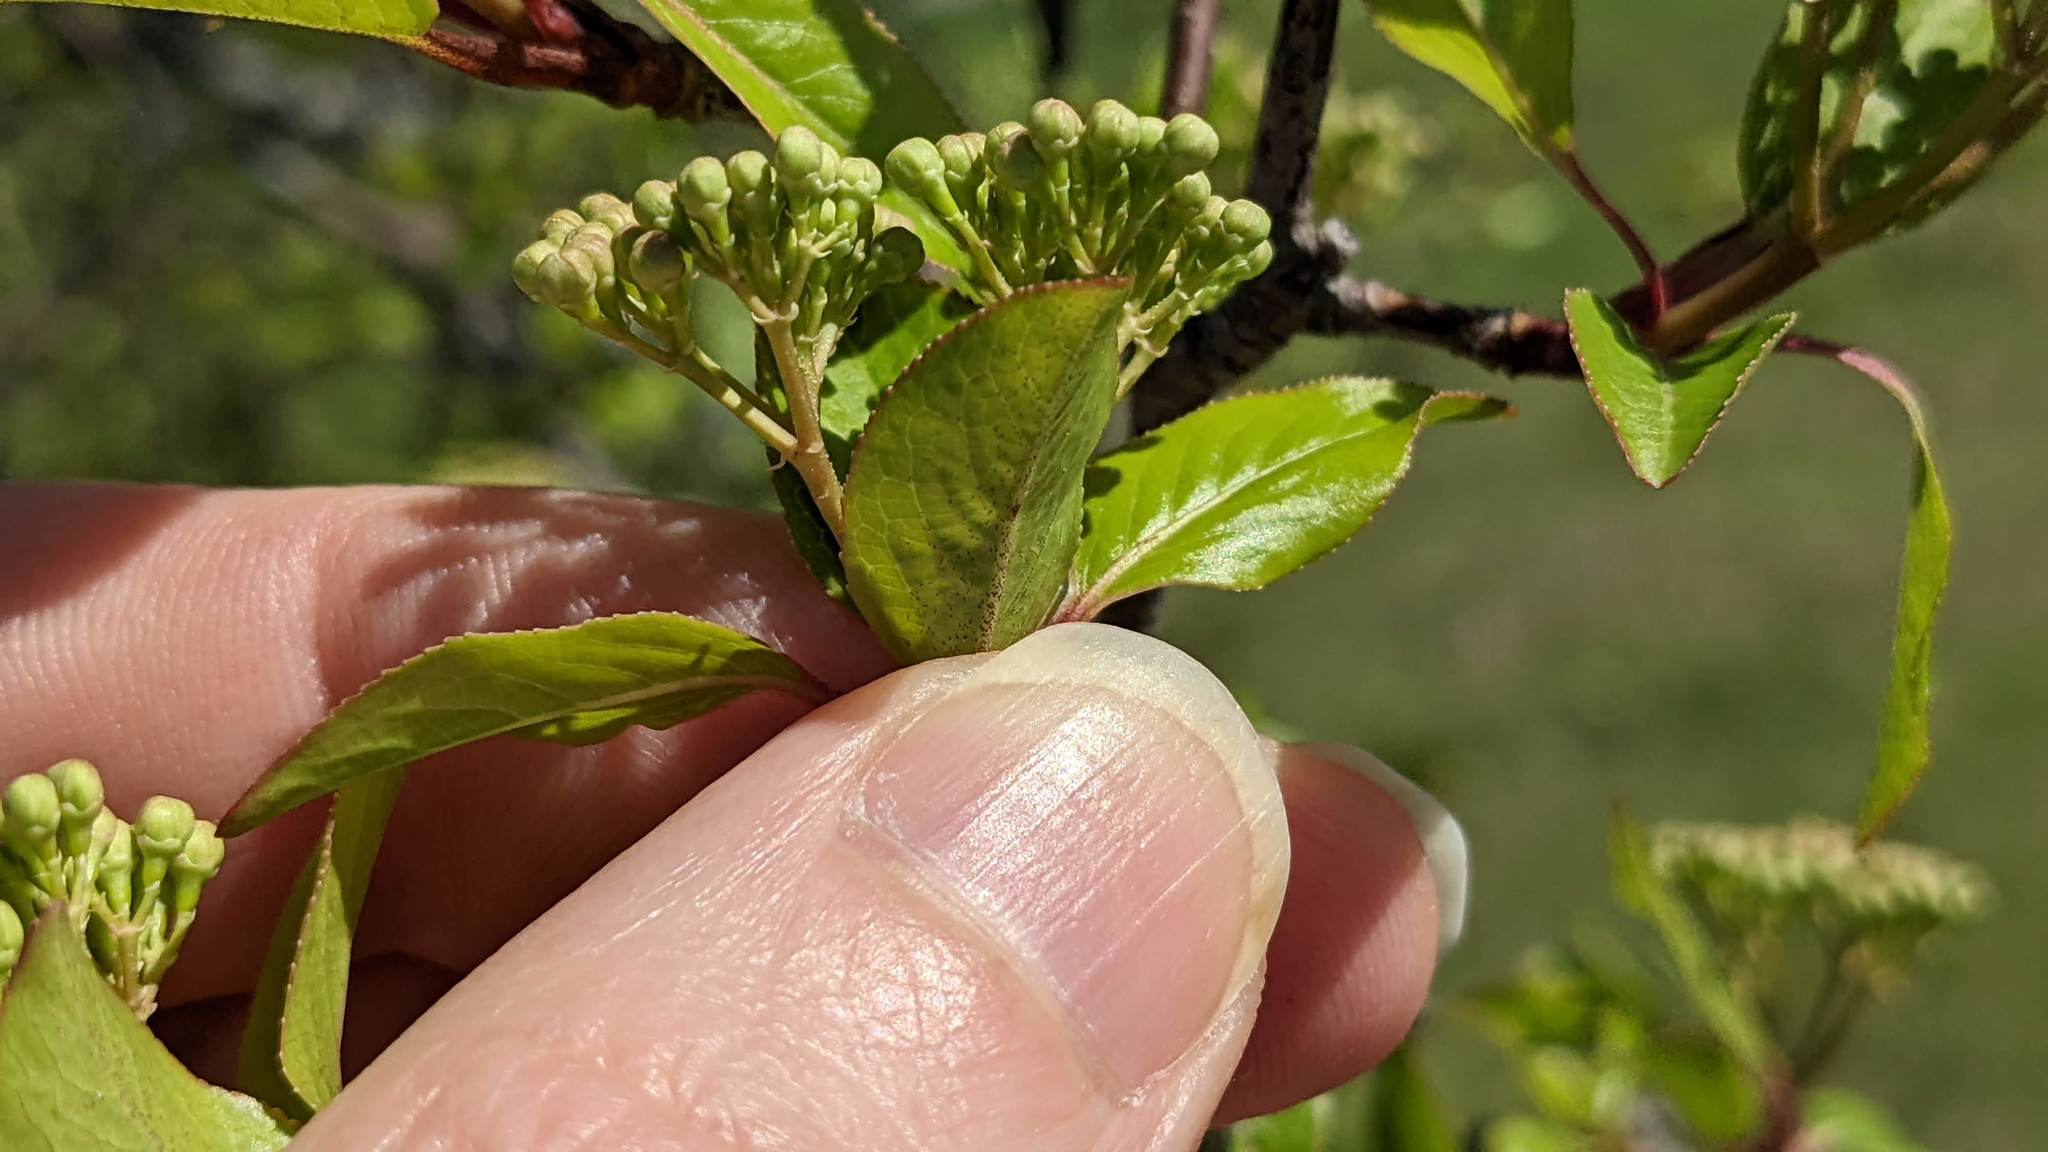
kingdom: Plantae
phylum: Tracheophyta
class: Magnoliopsida
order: Dipsacales
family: Viburnaceae
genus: Viburnum
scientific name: Viburnum rufidulum
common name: Blue haw
